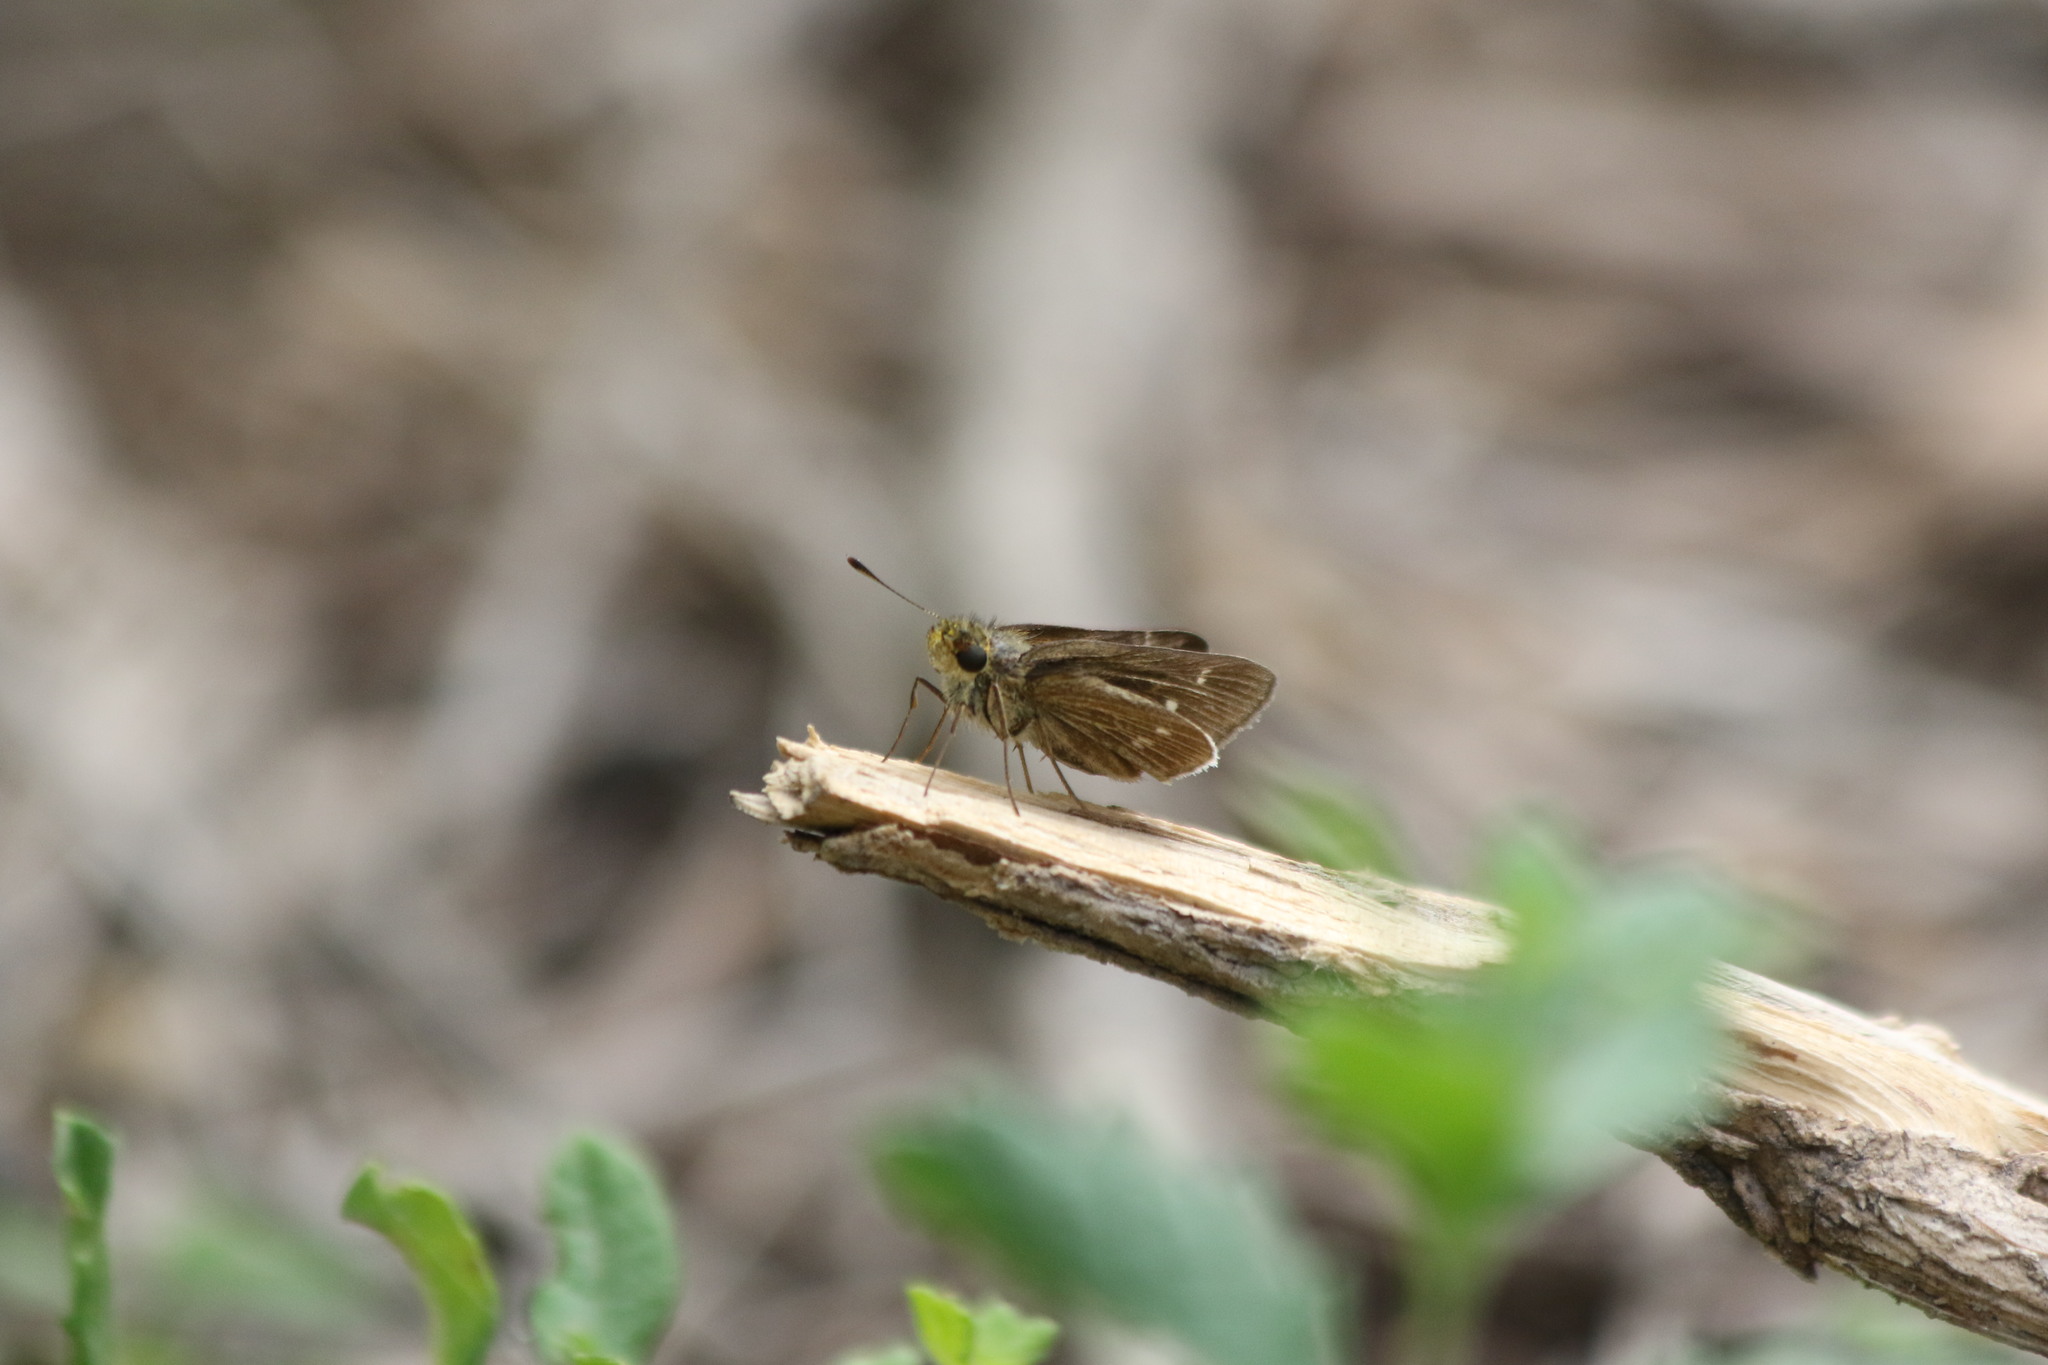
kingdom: Animalia
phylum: Arthropoda
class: Insecta
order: Lepidoptera
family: Hesperiidae
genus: Panoquina
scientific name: Panoquina panoquinoides
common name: Beach skipper
